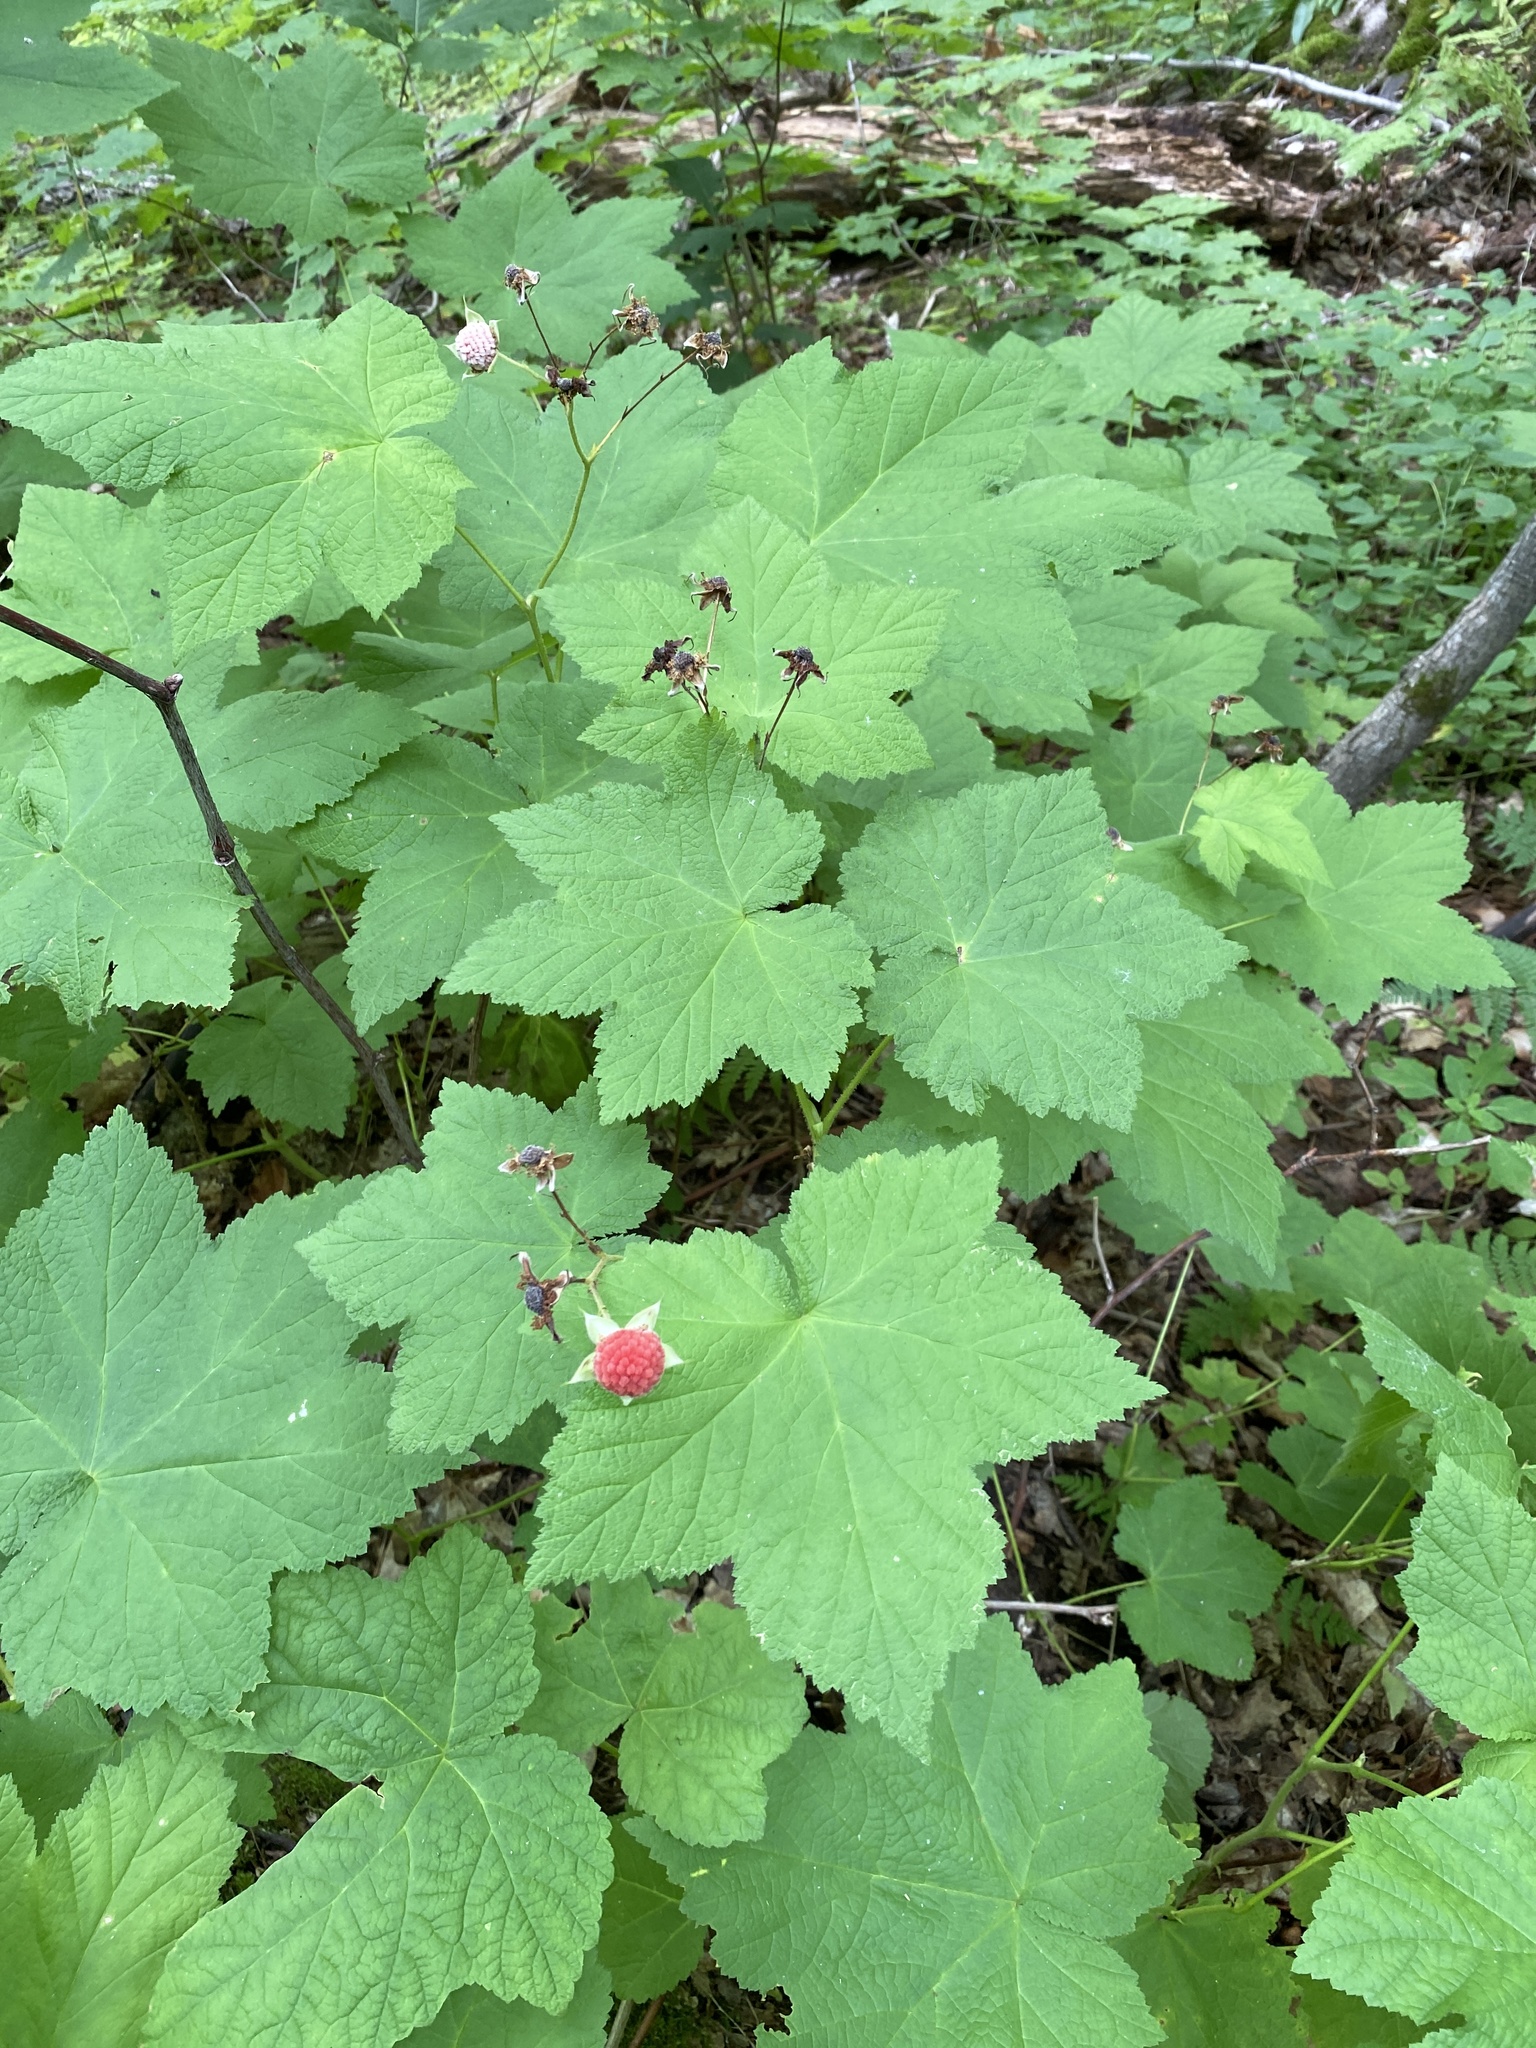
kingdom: Plantae
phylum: Tracheophyta
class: Magnoliopsida
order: Rosales
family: Rosaceae
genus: Rubus
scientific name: Rubus parviflorus
